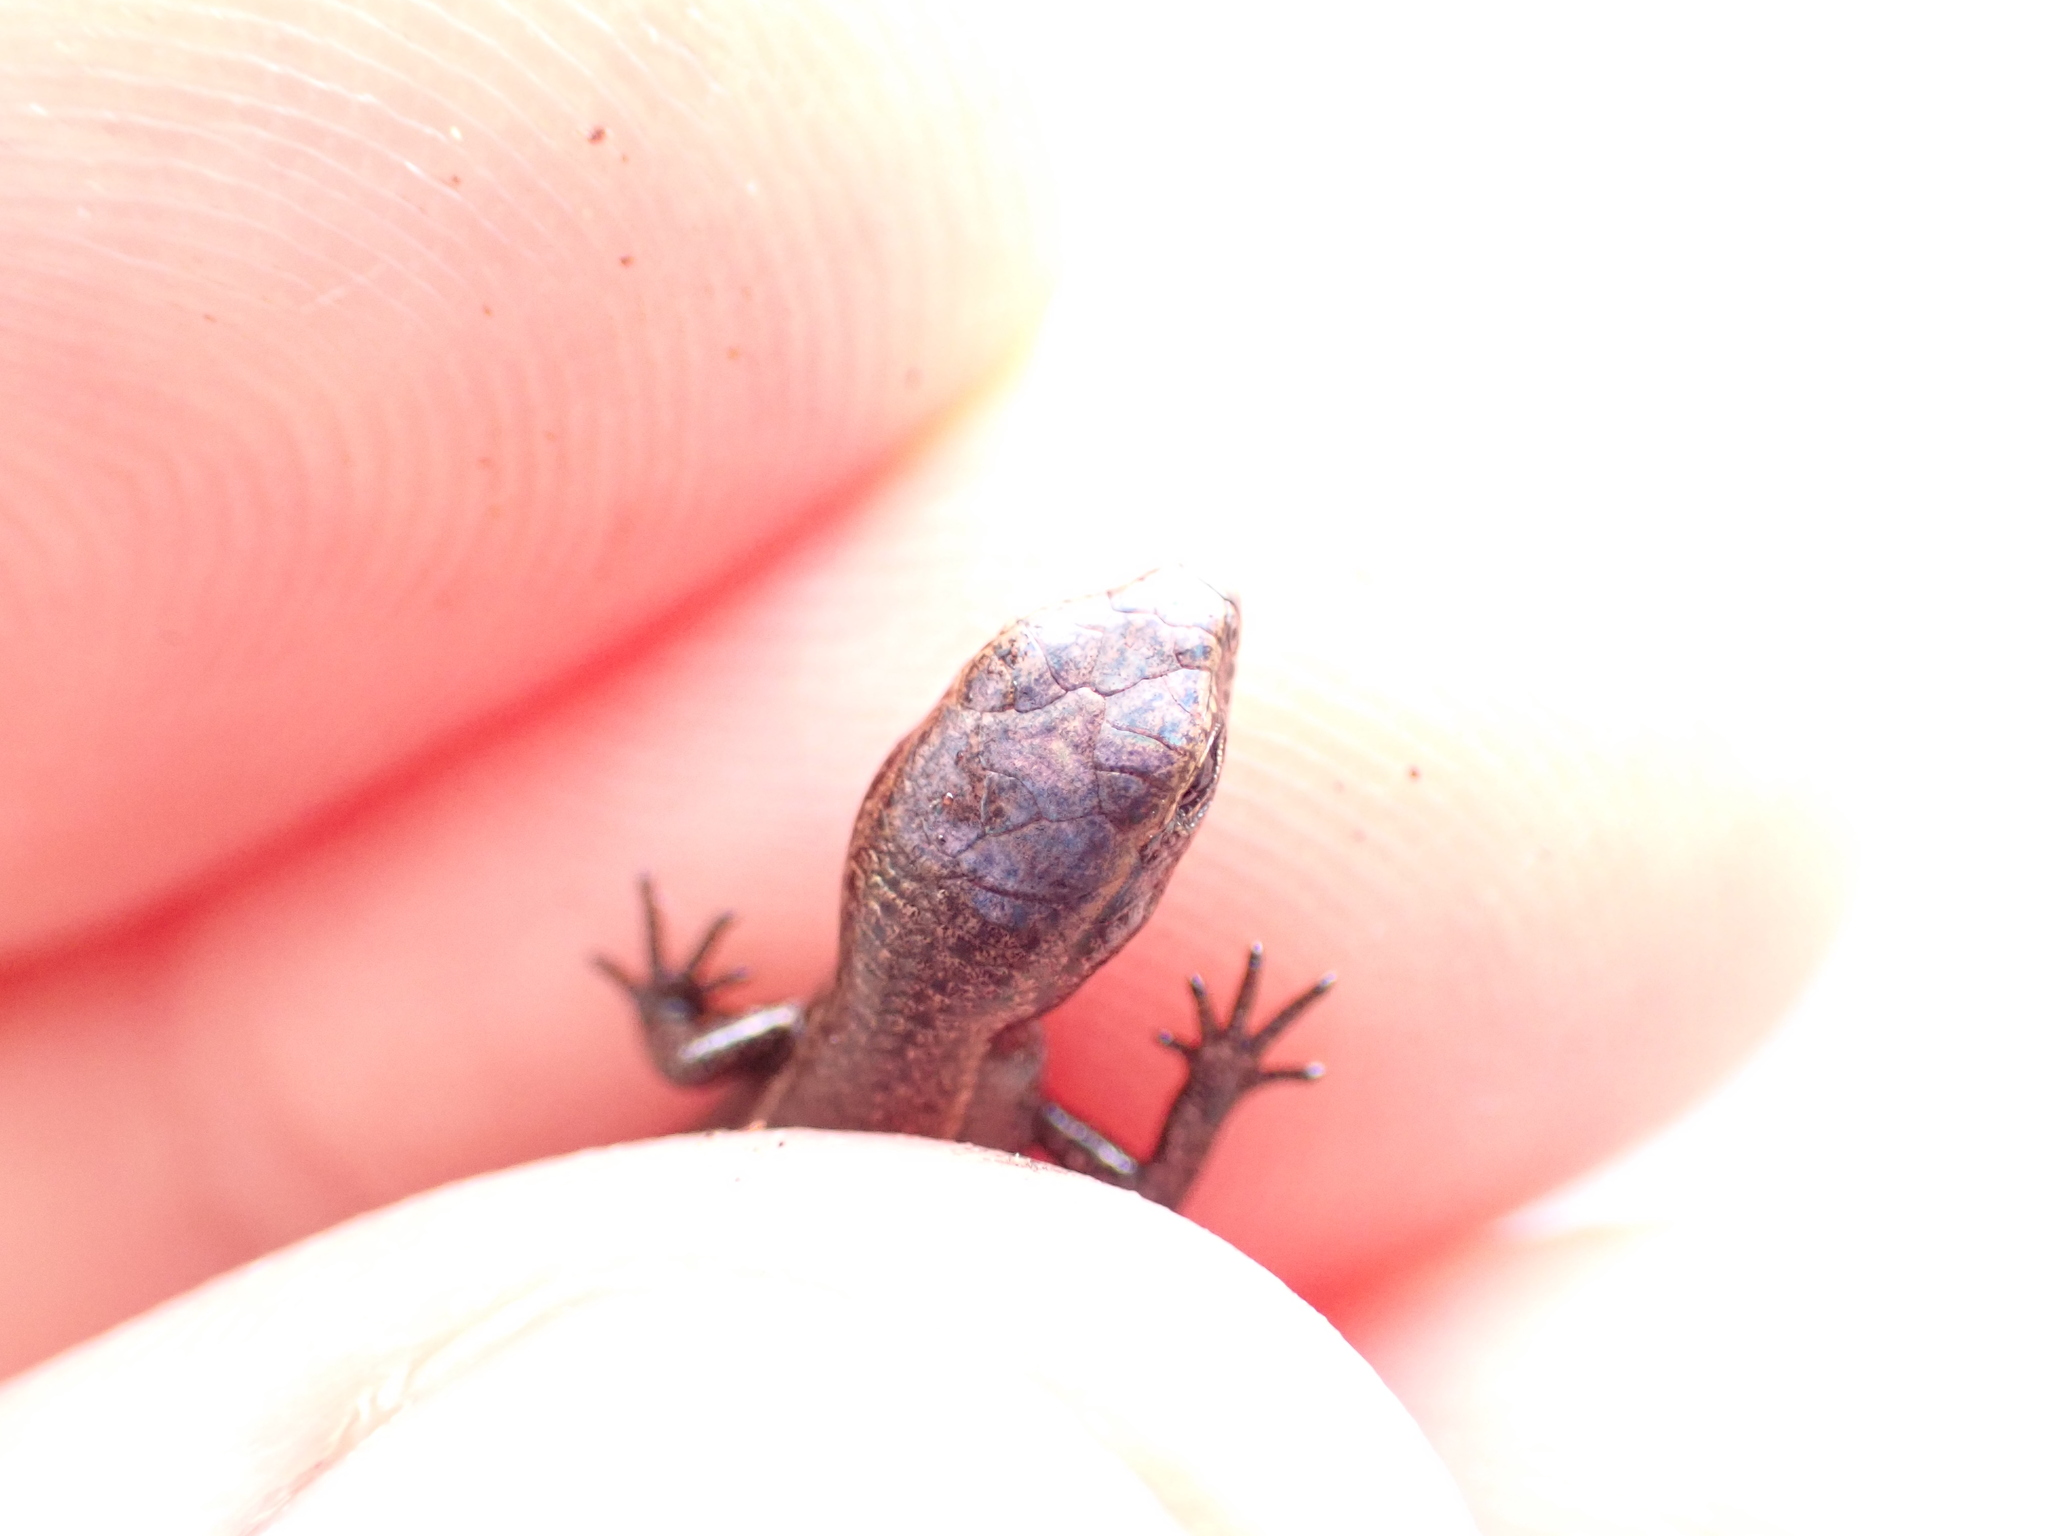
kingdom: Animalia
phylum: Chordata
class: Squamata
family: Scincidae
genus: Lampropholis
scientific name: Lampropholis delicata
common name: Plague skink
